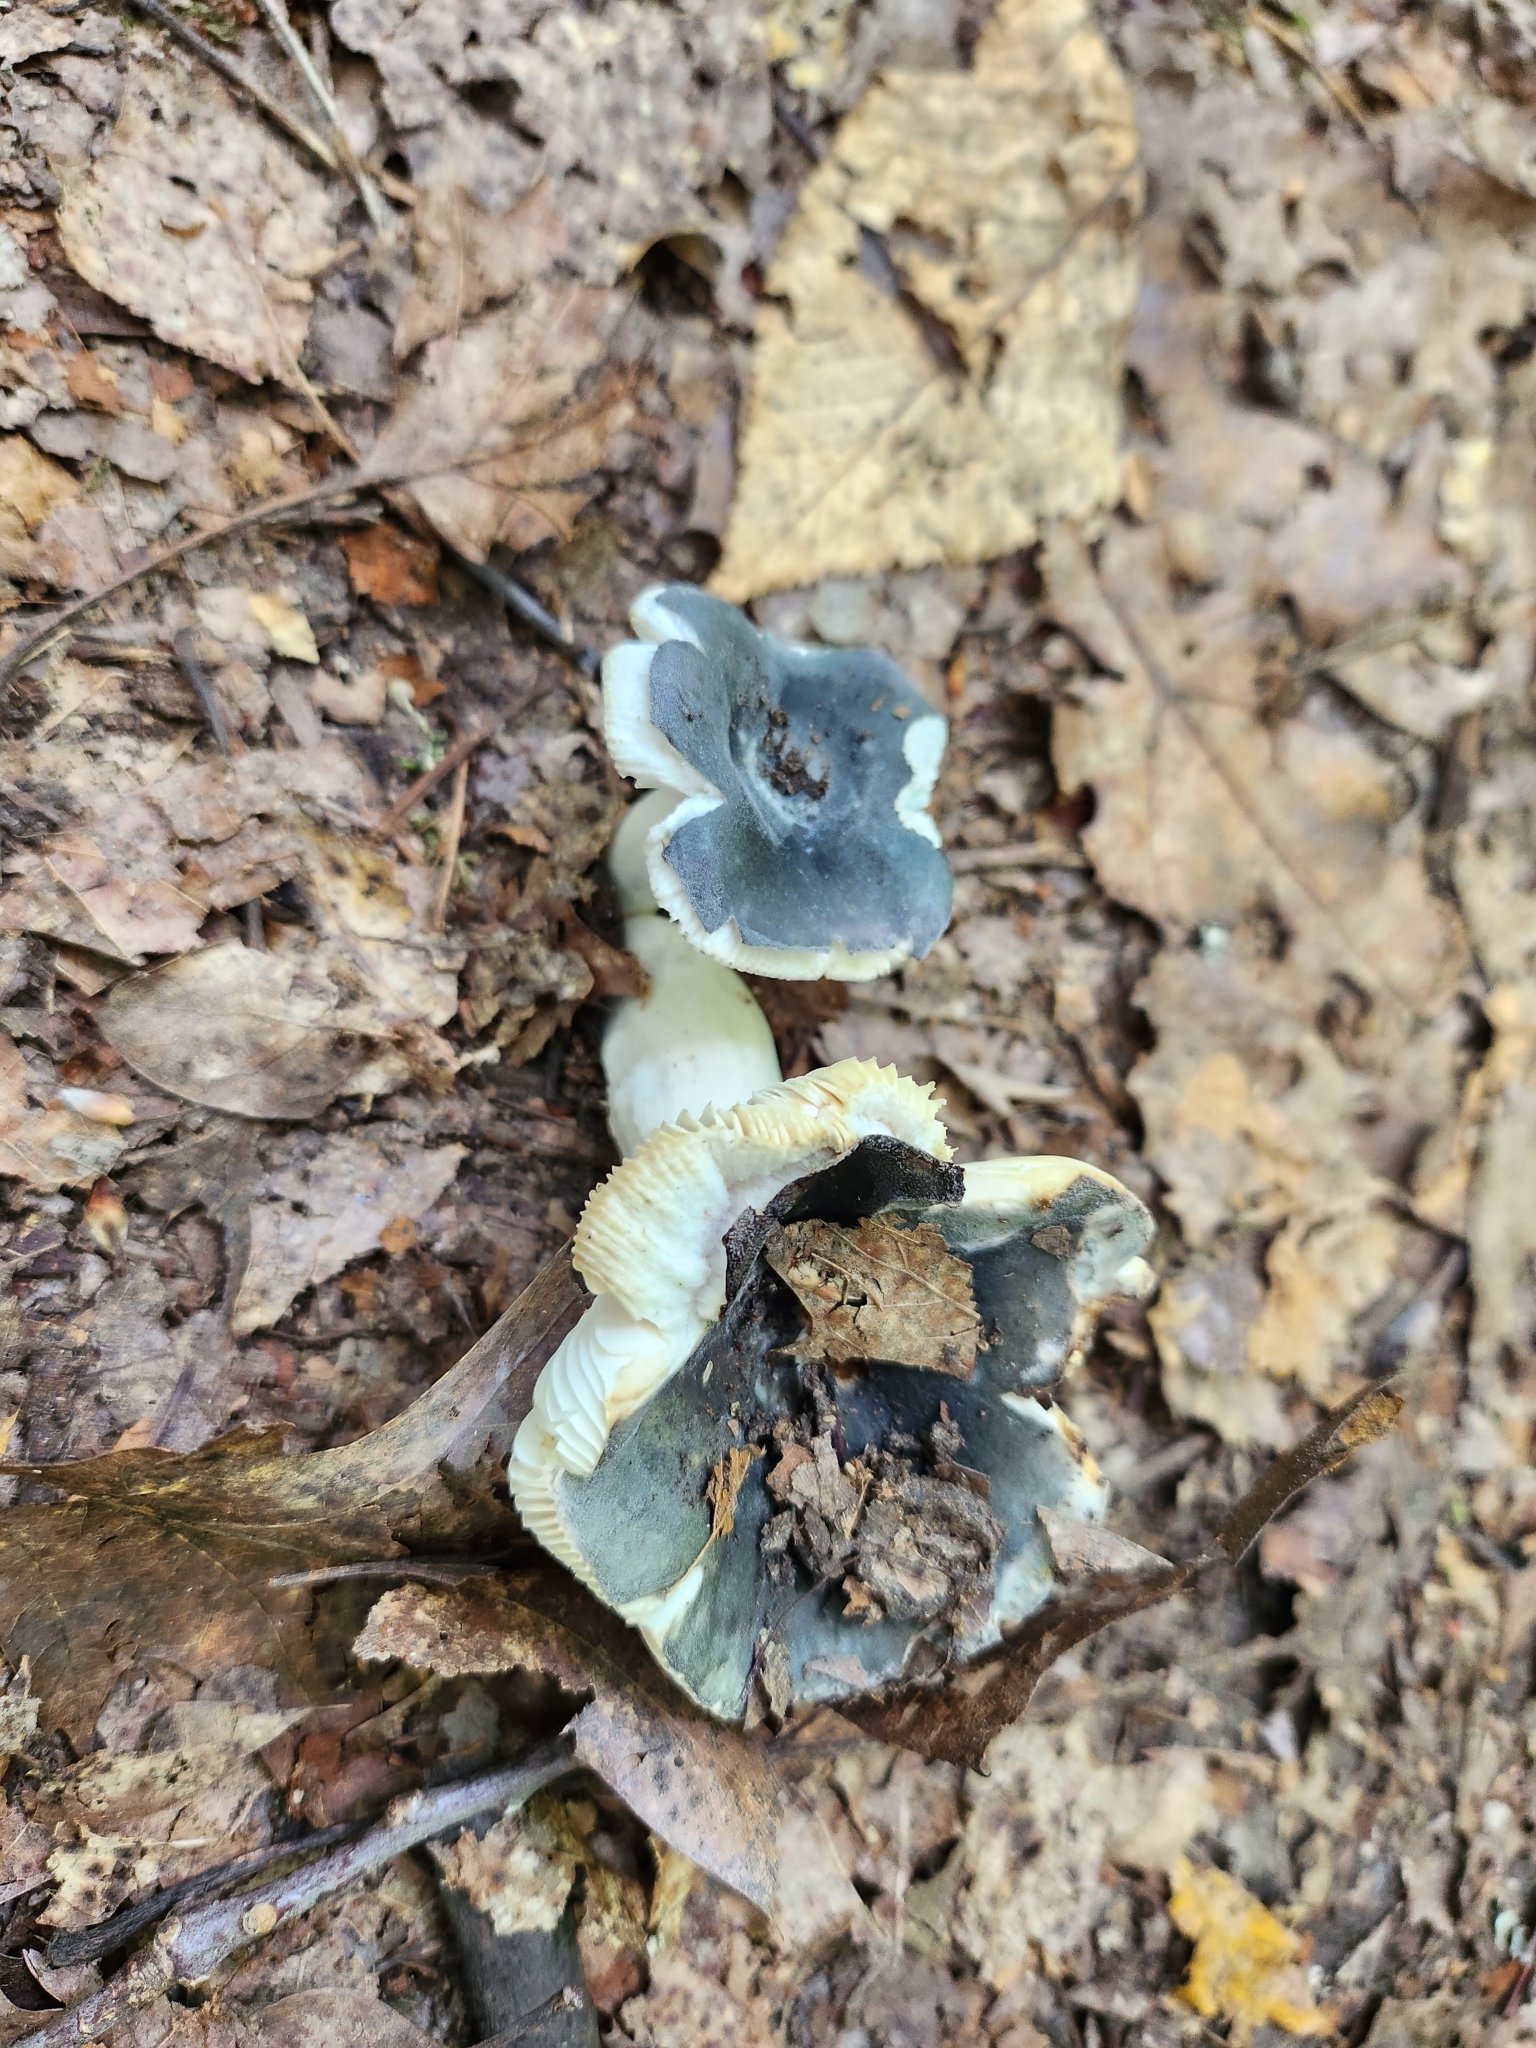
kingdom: Fungi
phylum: Basidiomycota
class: Agaricomycetes
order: Russulales
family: Russulaceae
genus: Russula
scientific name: Russula redolens
